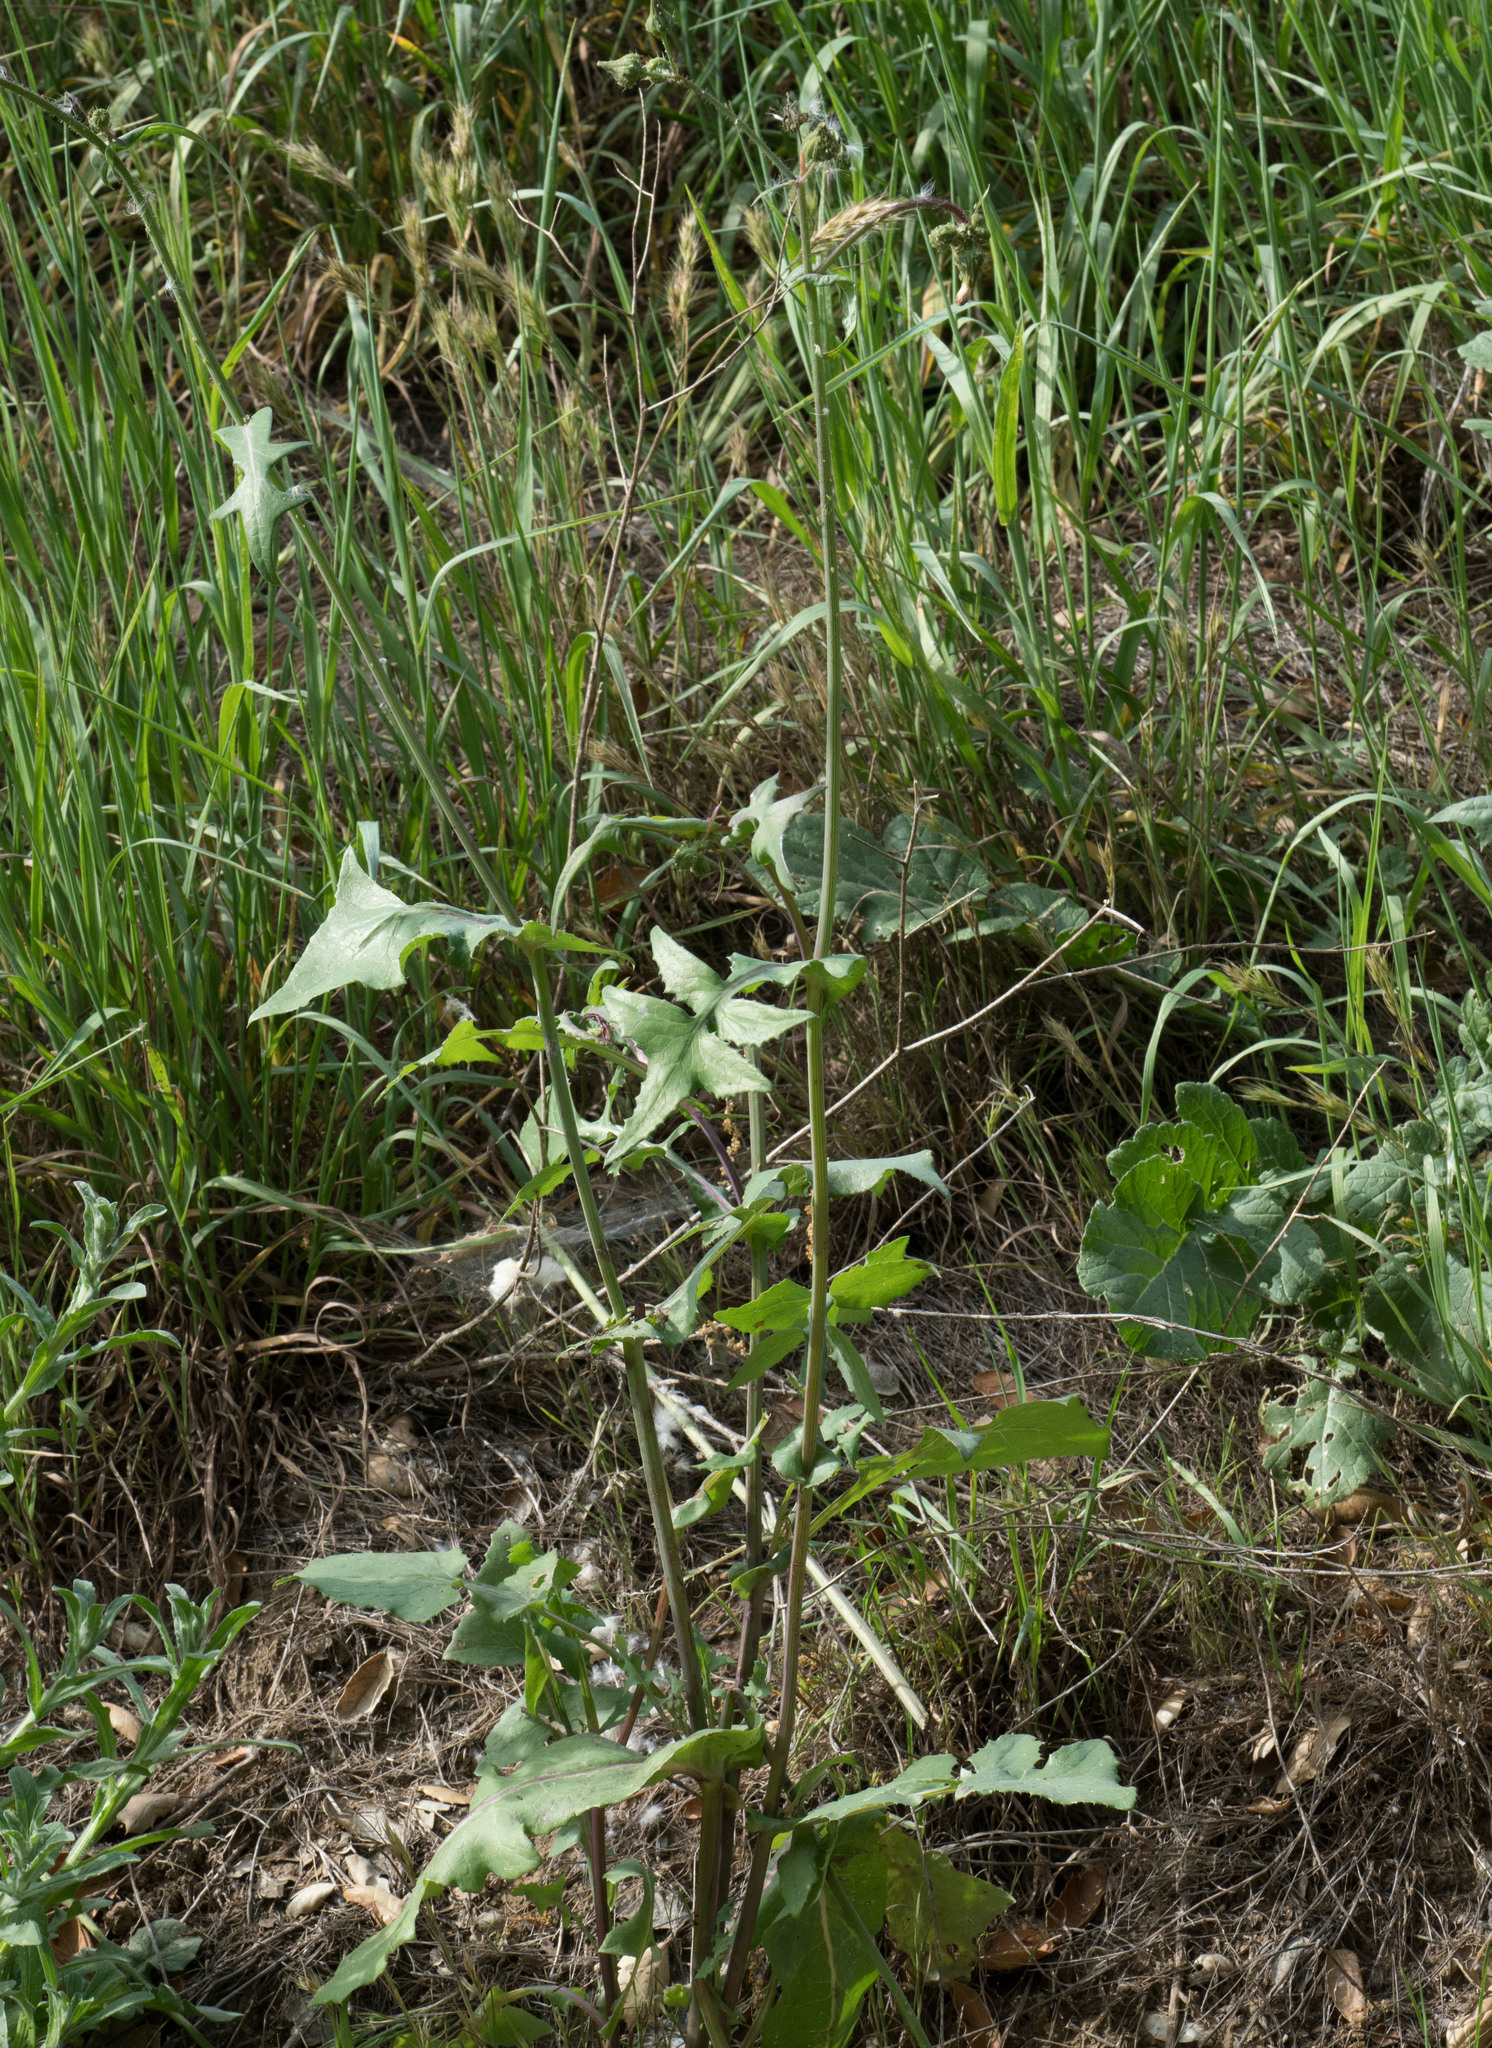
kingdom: Plantae
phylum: Tracheophyta
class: Magnoliopsida
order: Asterales
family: Asteraceae
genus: Sonchus
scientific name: Sonchus asper
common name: Prickly sow-thistle
